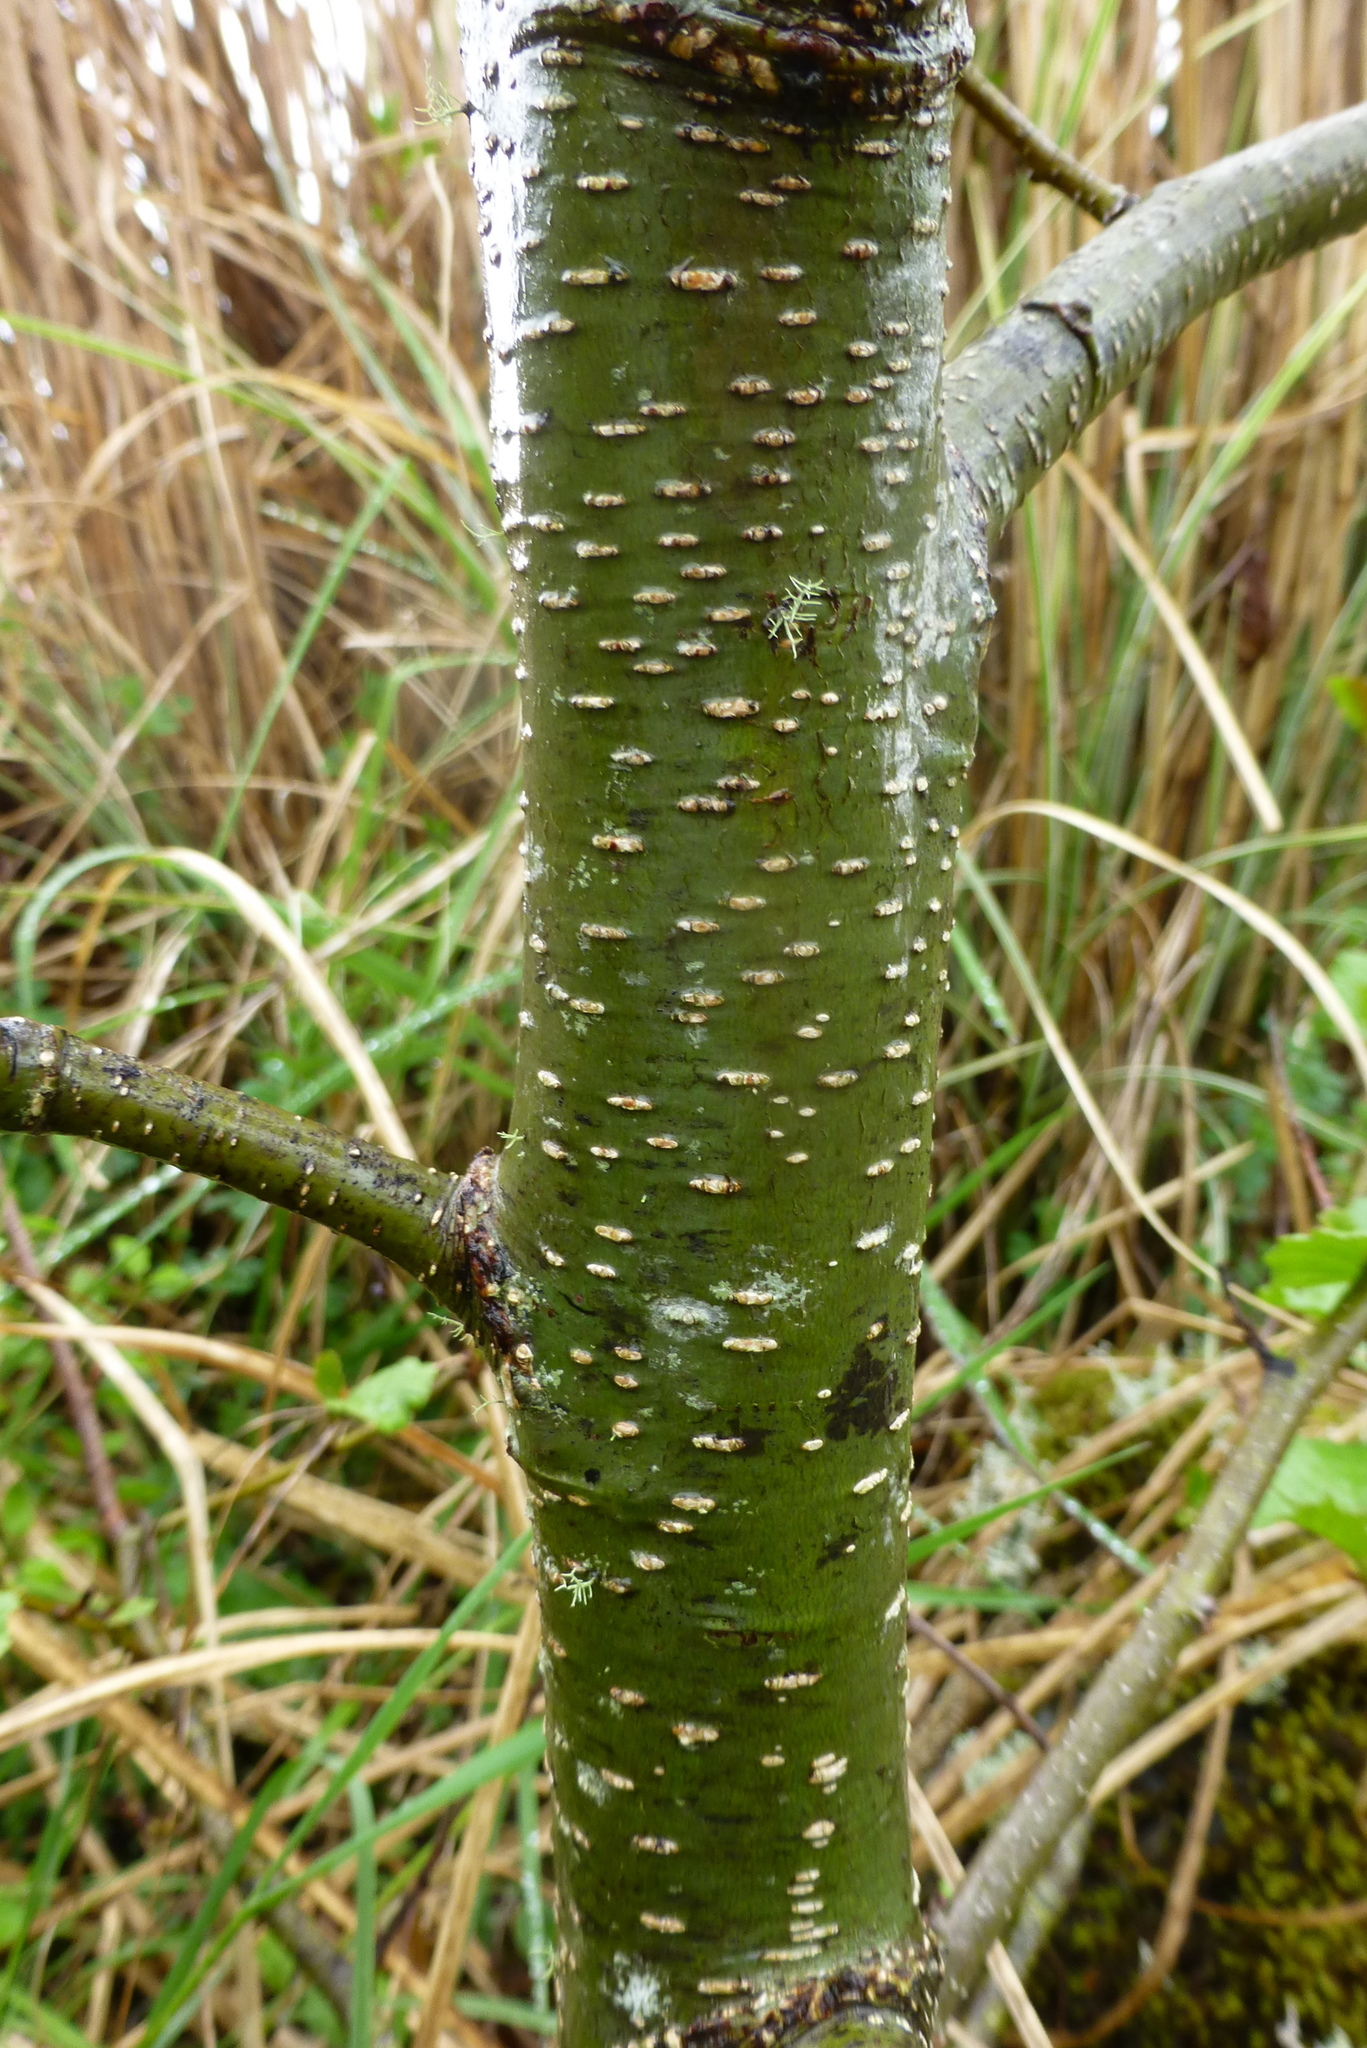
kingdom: Plantae
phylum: Tracheophyta
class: Magnoliopsida
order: Fagales
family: Betulaceae
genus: Alnus
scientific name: Alnus glutinosa
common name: Black alder
